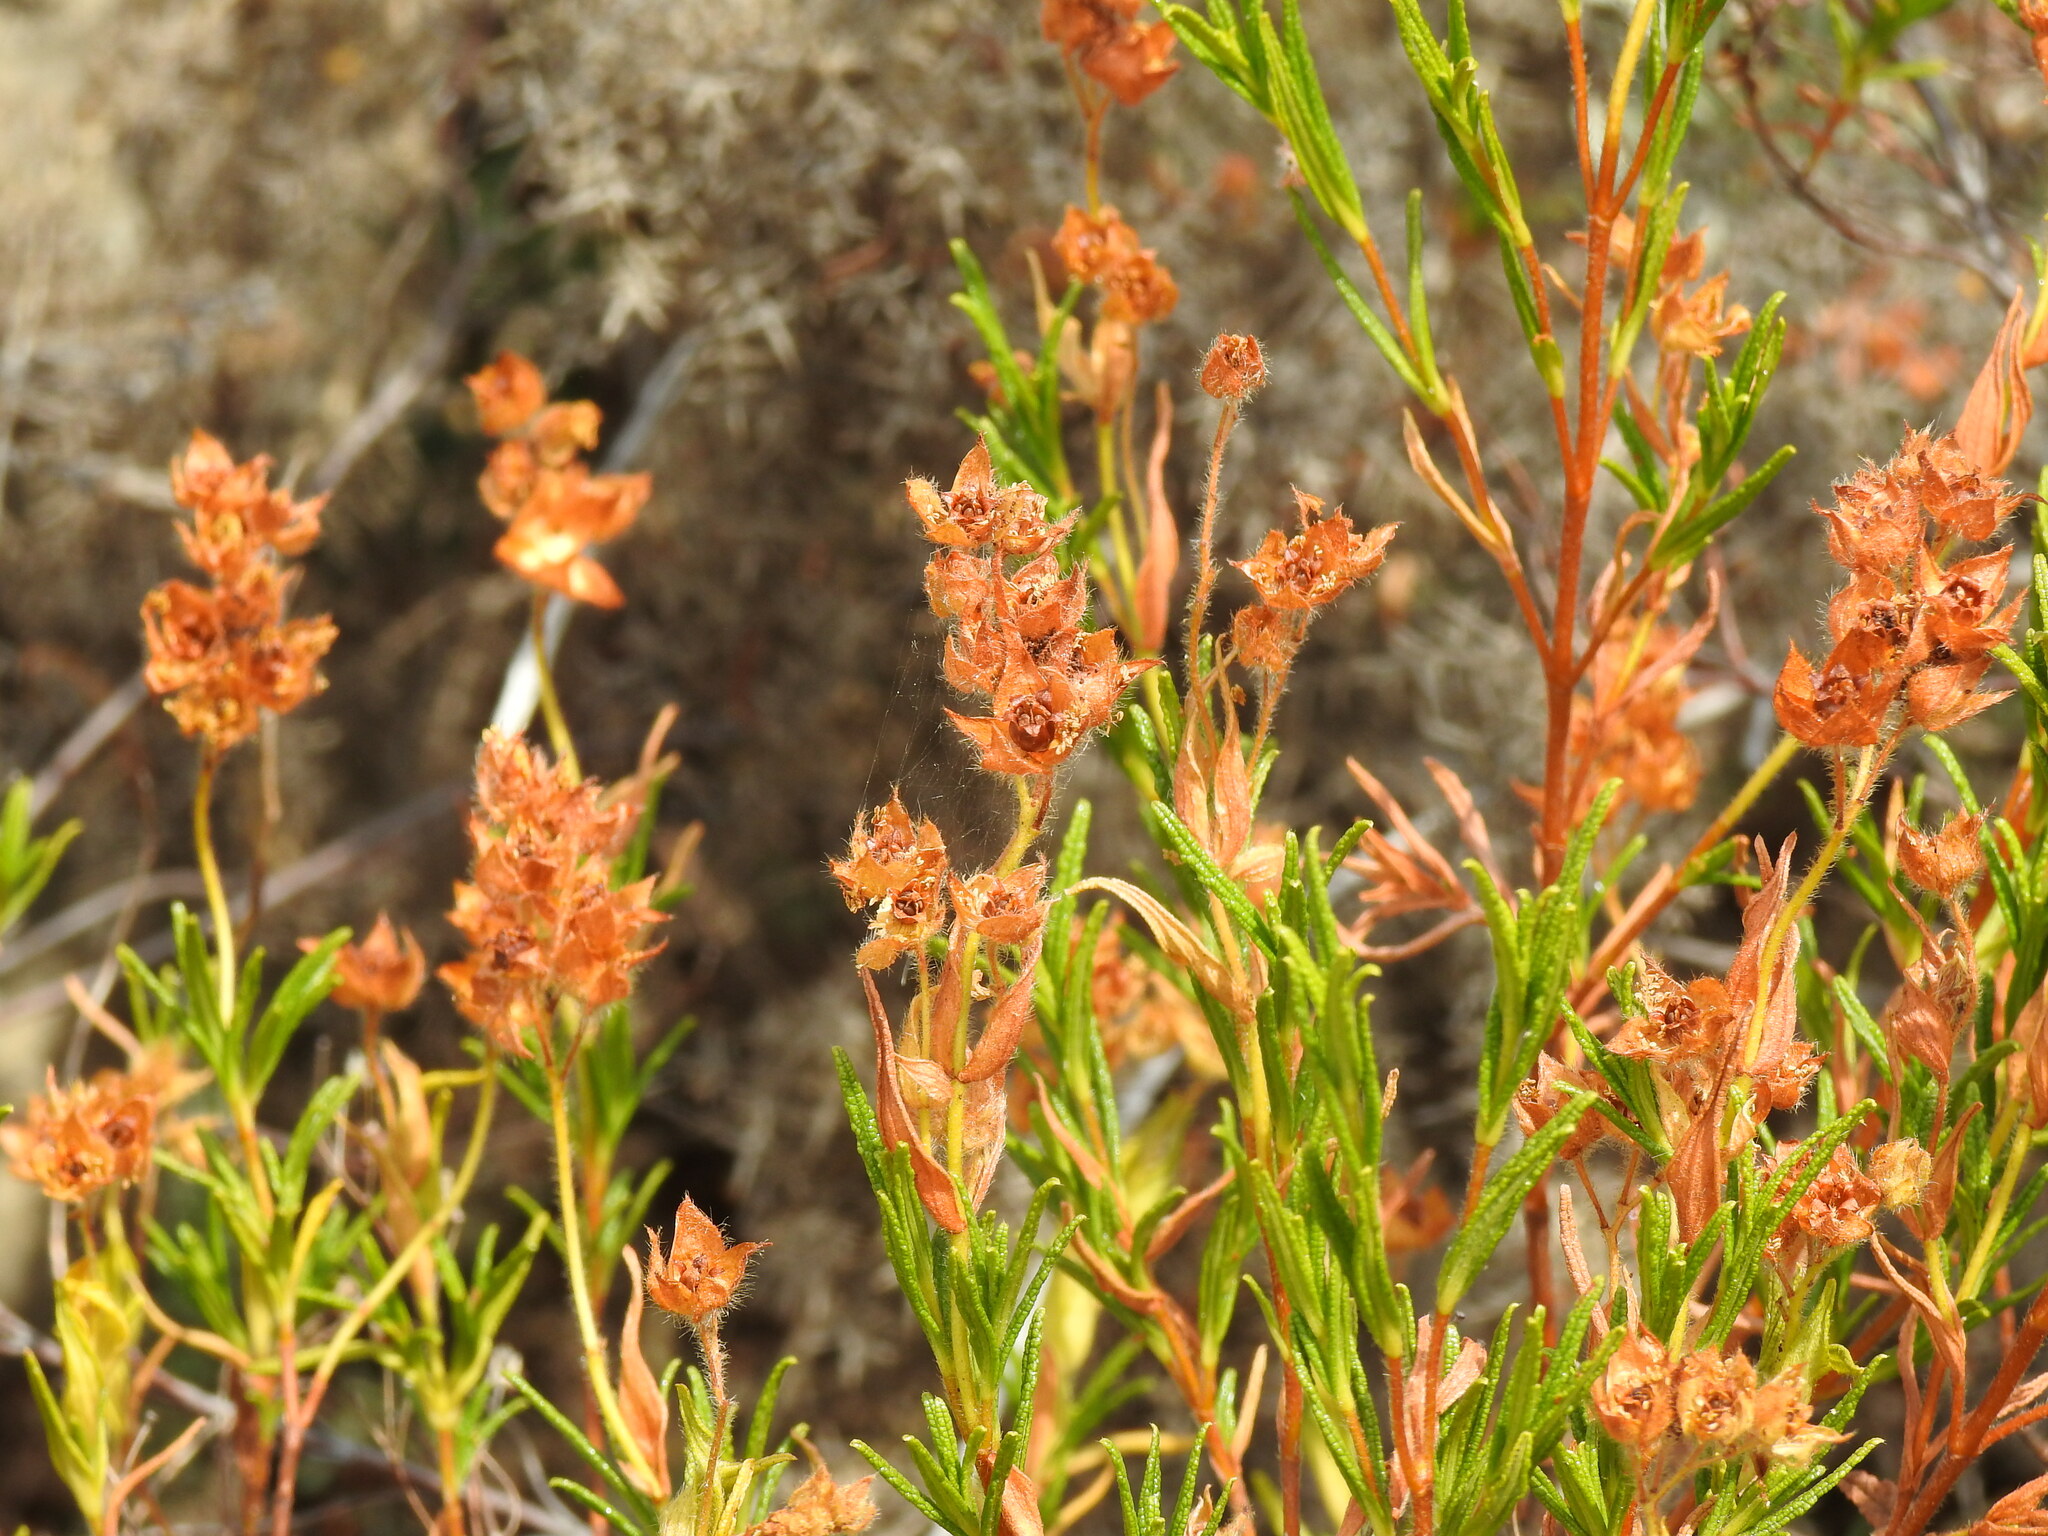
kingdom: Plantae
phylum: Tracheophyta
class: Magnoliopsida
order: Malvales
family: Cistaceae
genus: Cistus
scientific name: Cistus monspeliensis
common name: Montpelier cistus
